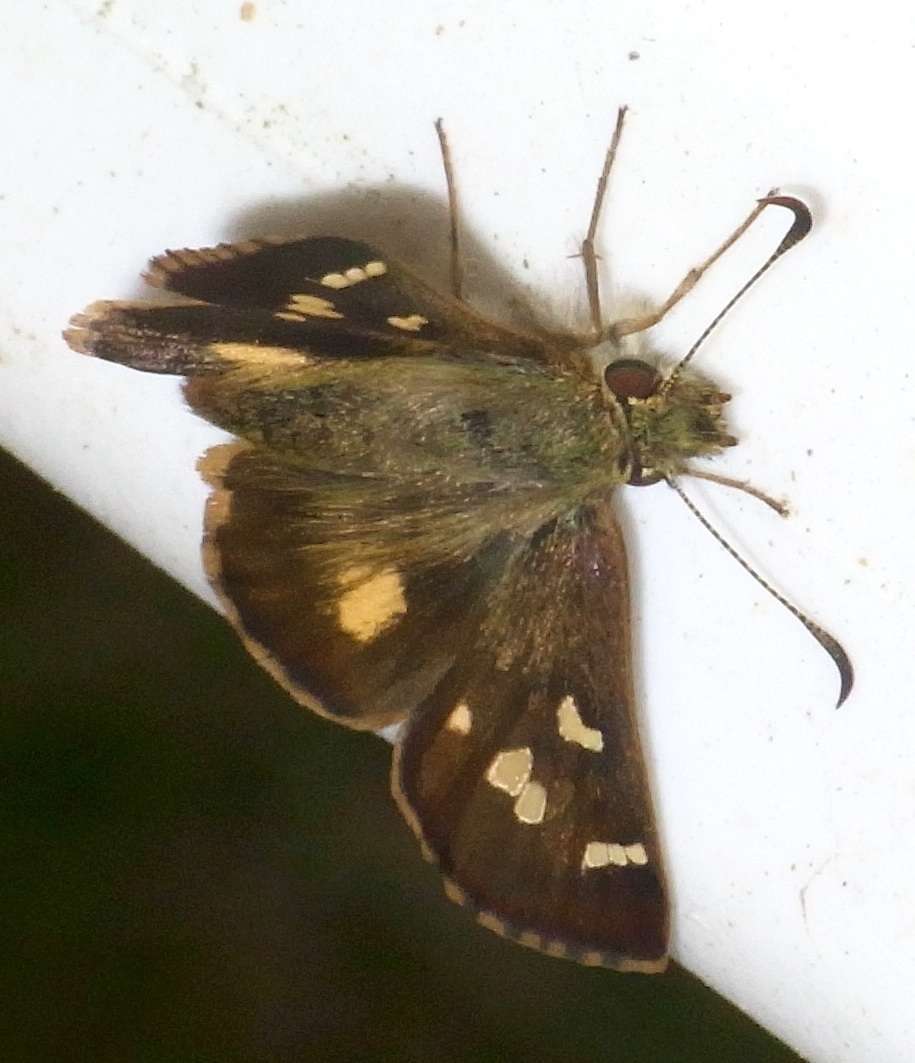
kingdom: Animalia
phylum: Arthropoda
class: Insecta
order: Lepidoptera
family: Hesperiidae
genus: Dispar
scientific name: Dispar compacta
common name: Barred skipper
